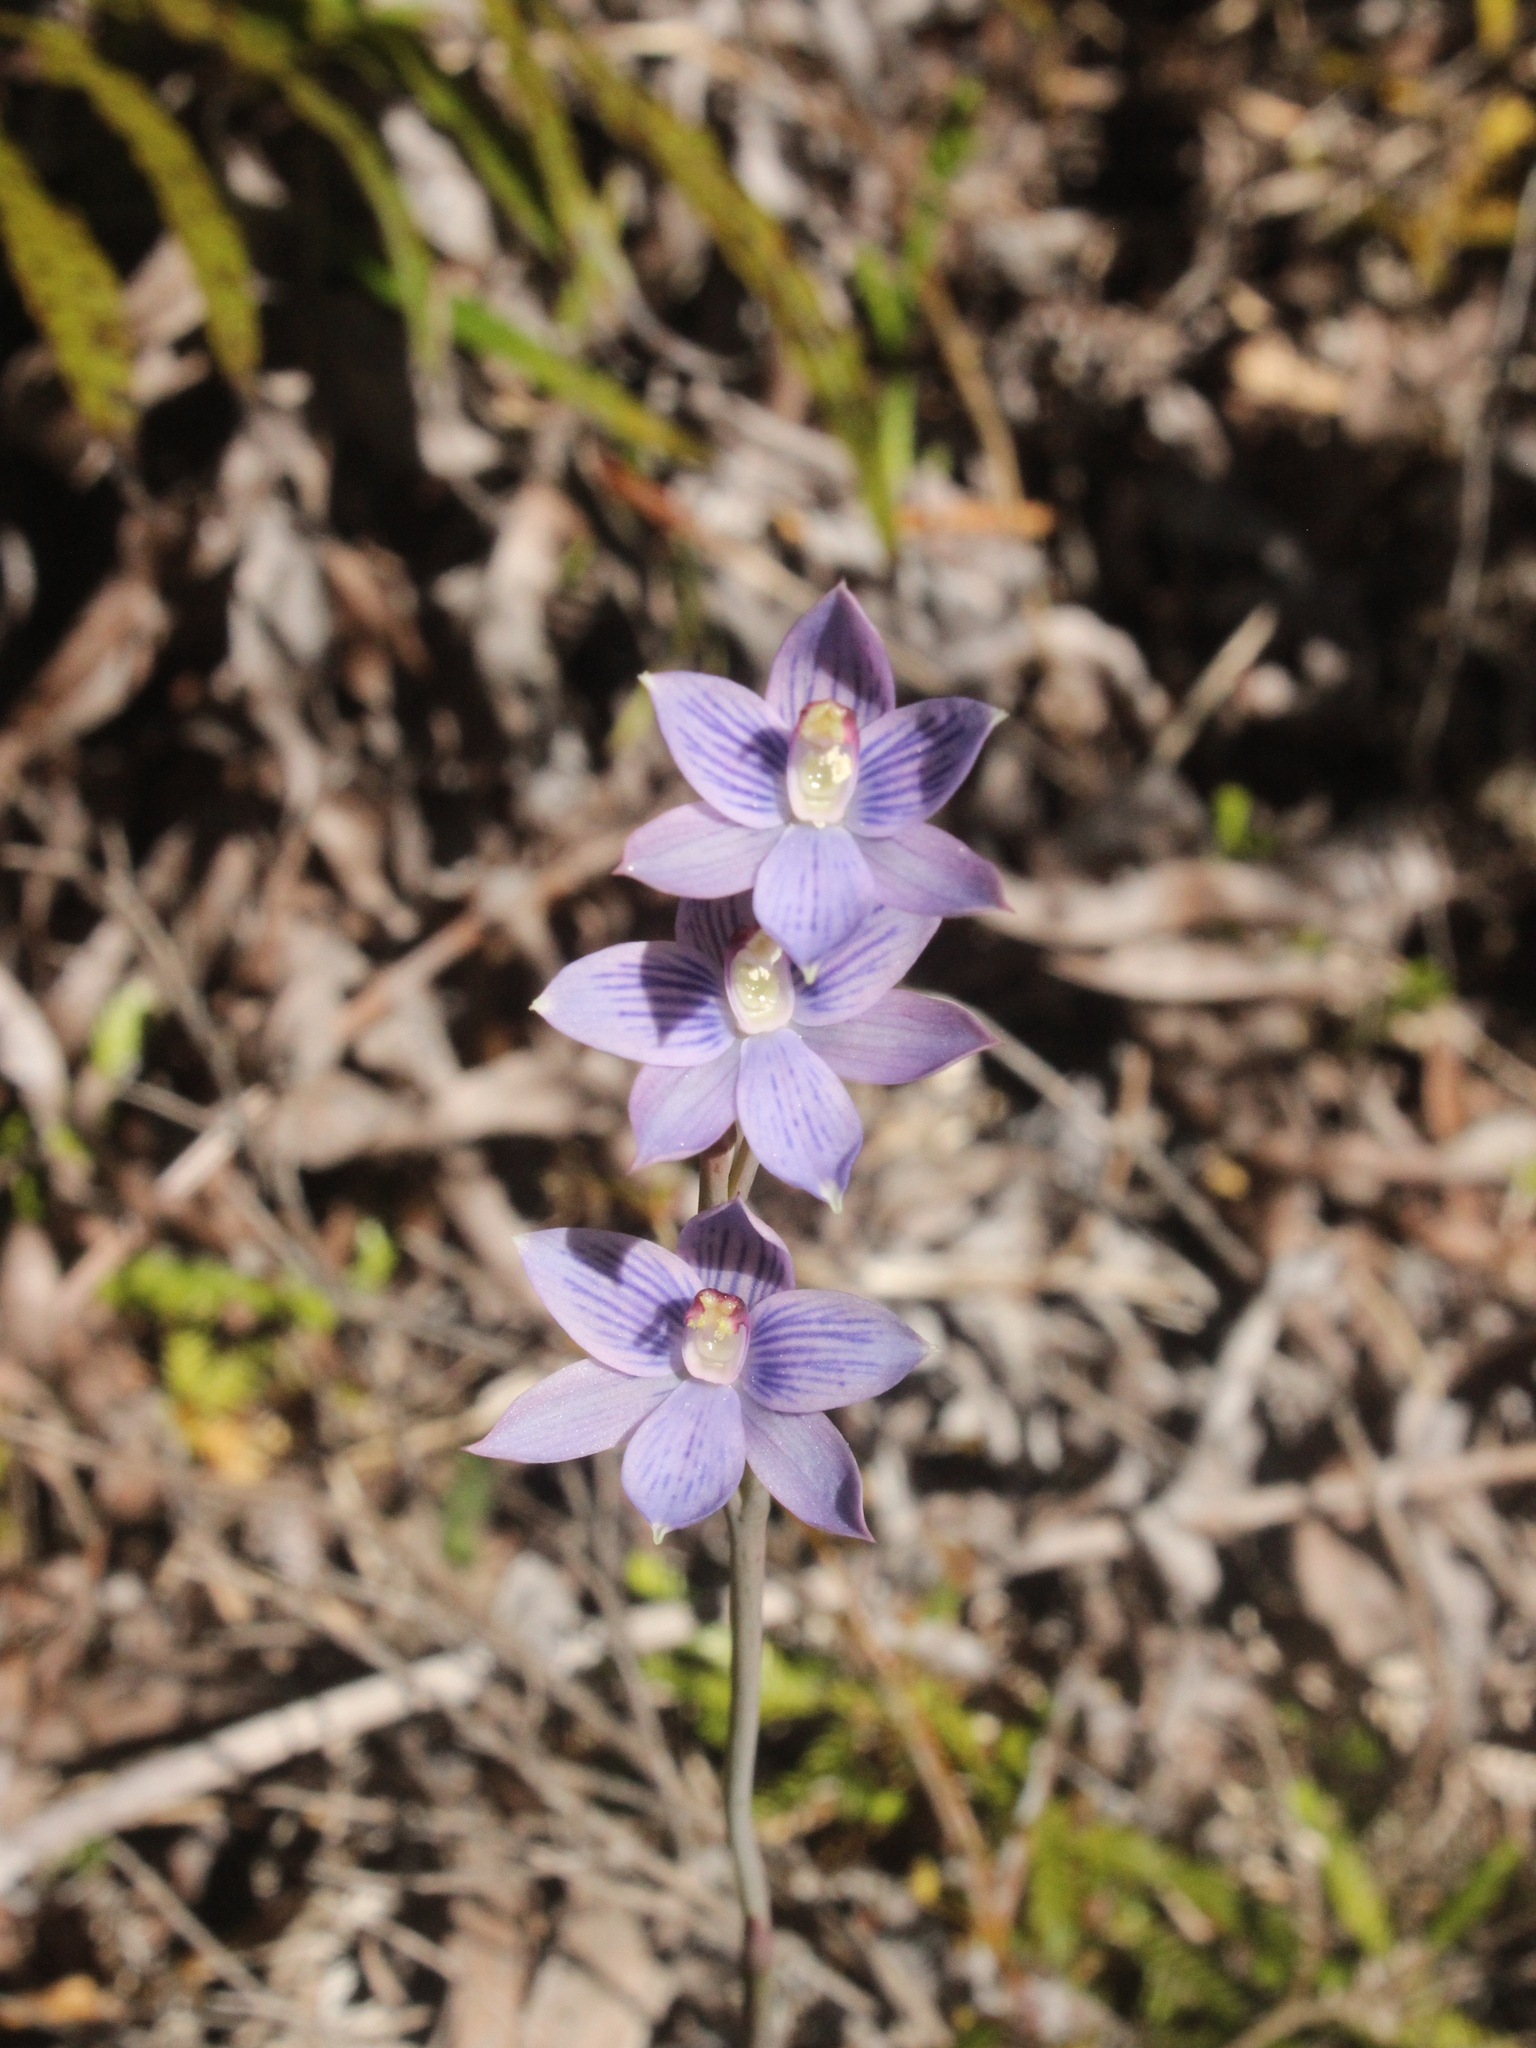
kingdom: Plantae
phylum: Tracheophyta
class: Liliopsida
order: Asparagales
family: Orchidaceae
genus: Thelymitra
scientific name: Thelymitra pulchella
